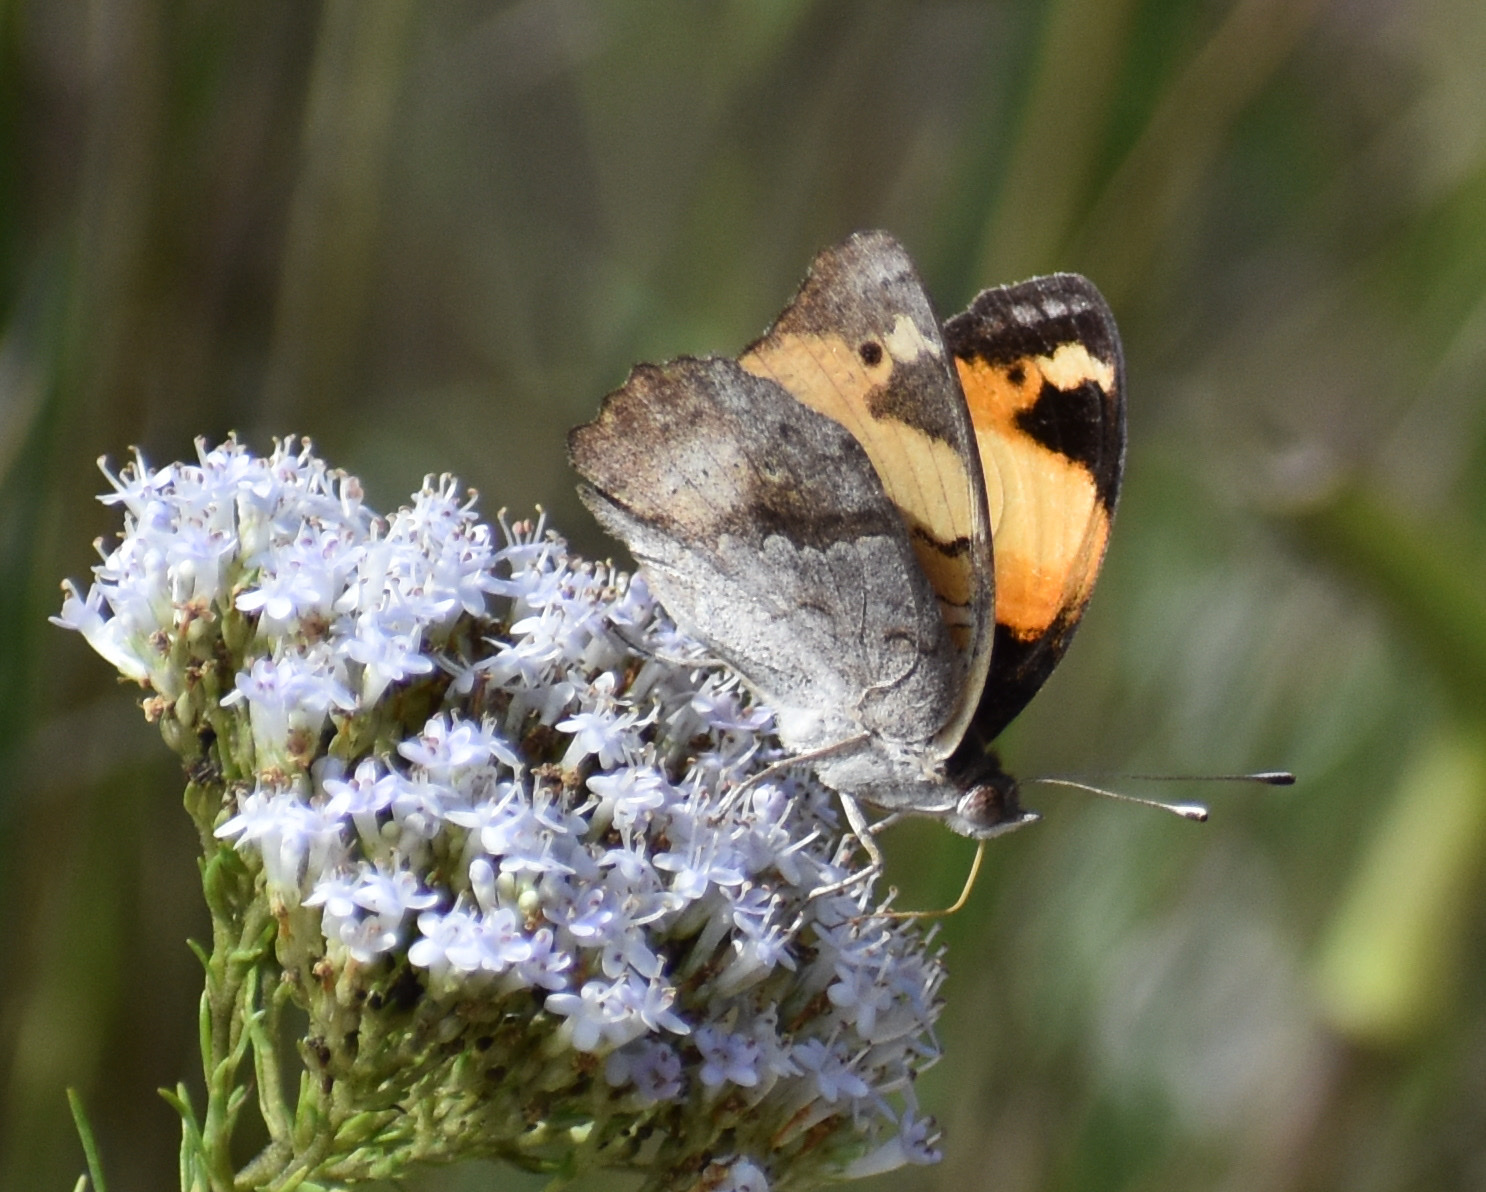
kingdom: Animalia
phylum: Arthropoda
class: Insecta
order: Lepidoptera
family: Nymphalidae
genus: Junonia
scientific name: Junonia hierta
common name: Yellow pansy
